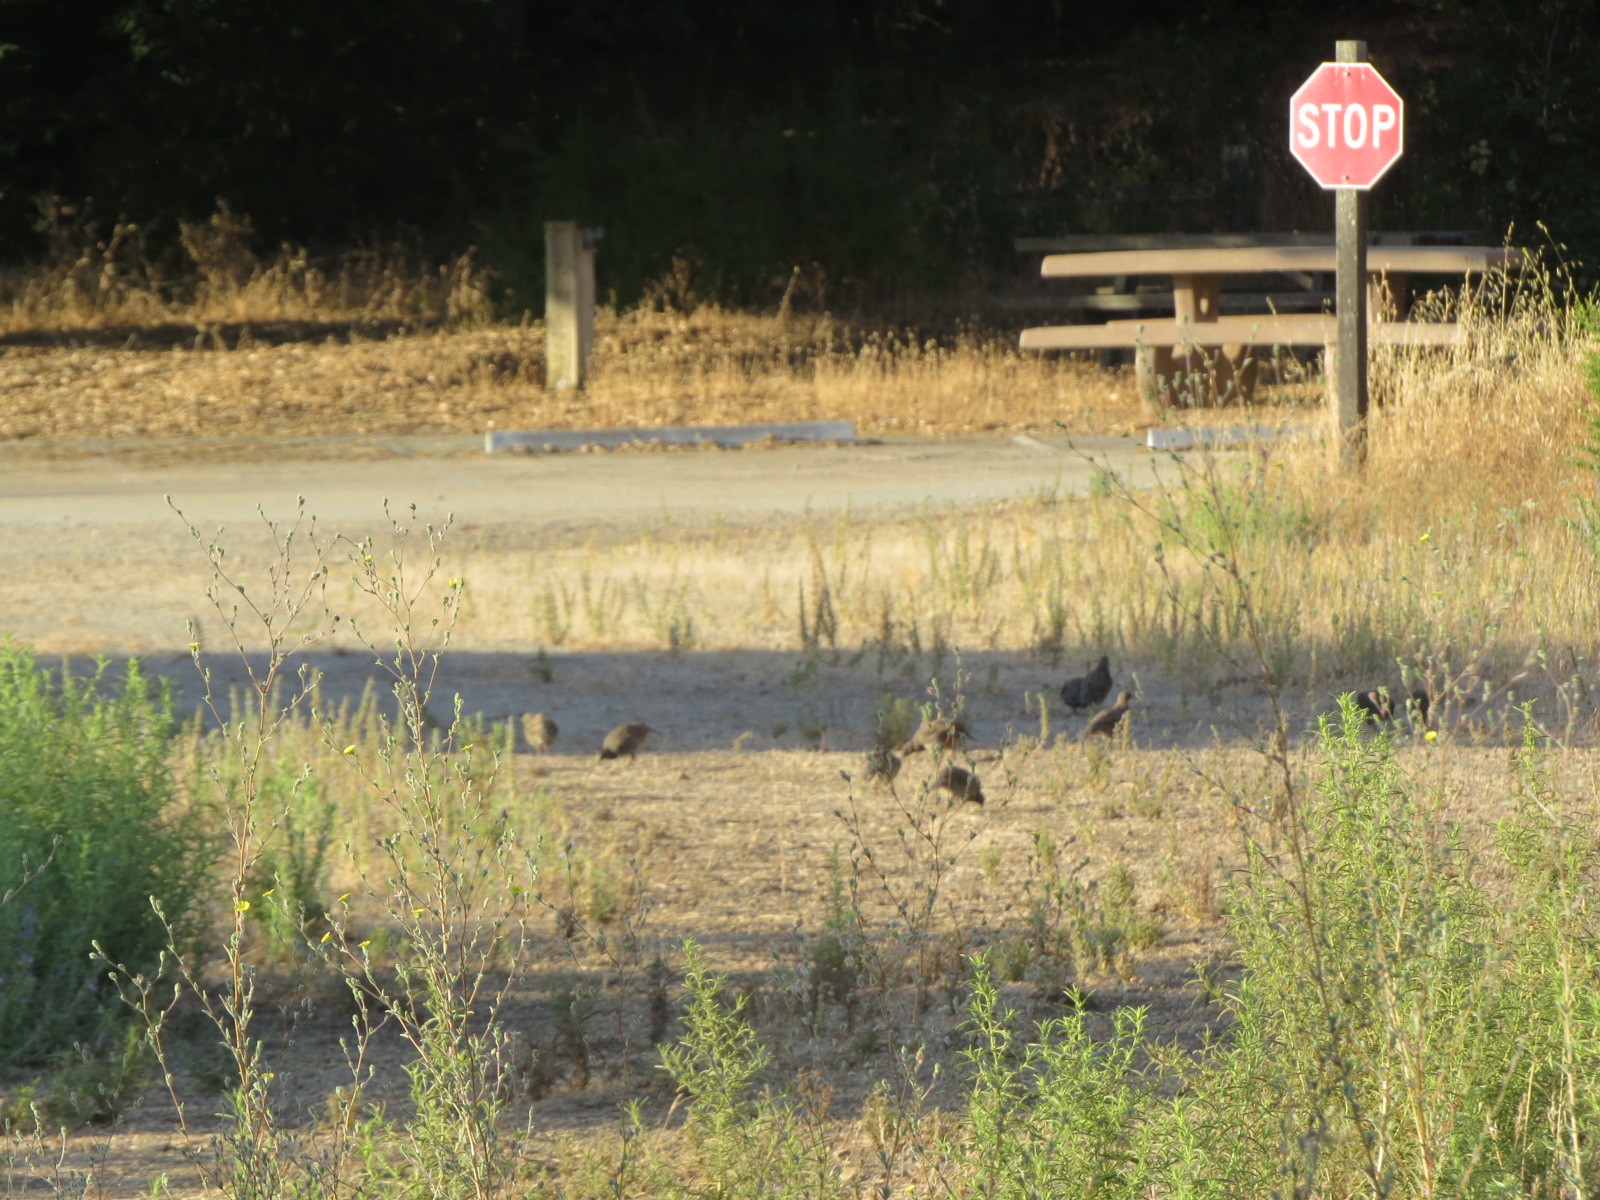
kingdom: Animalia
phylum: Chordata
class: Aves
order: Galliformes
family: Odontophoridae
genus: Callipepla
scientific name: Callipepla californica
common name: California quail
